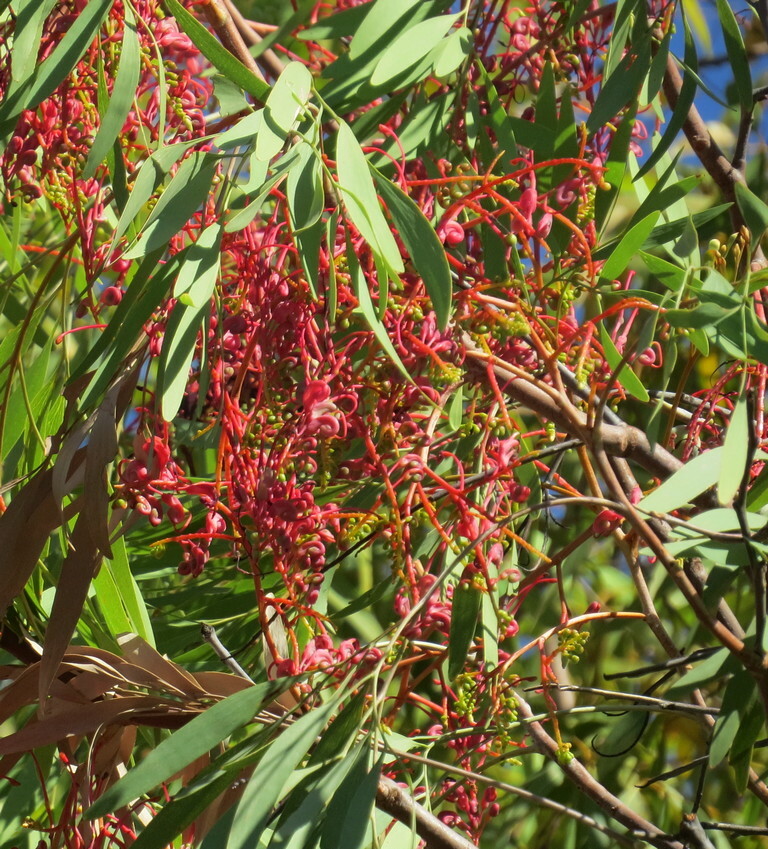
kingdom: Plantae
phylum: Tracheophyta
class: Magnoliopsida
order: Proteales
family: Proteaceae
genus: Grevillea
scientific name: Grevillea heliosperma
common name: Rock grevillea
